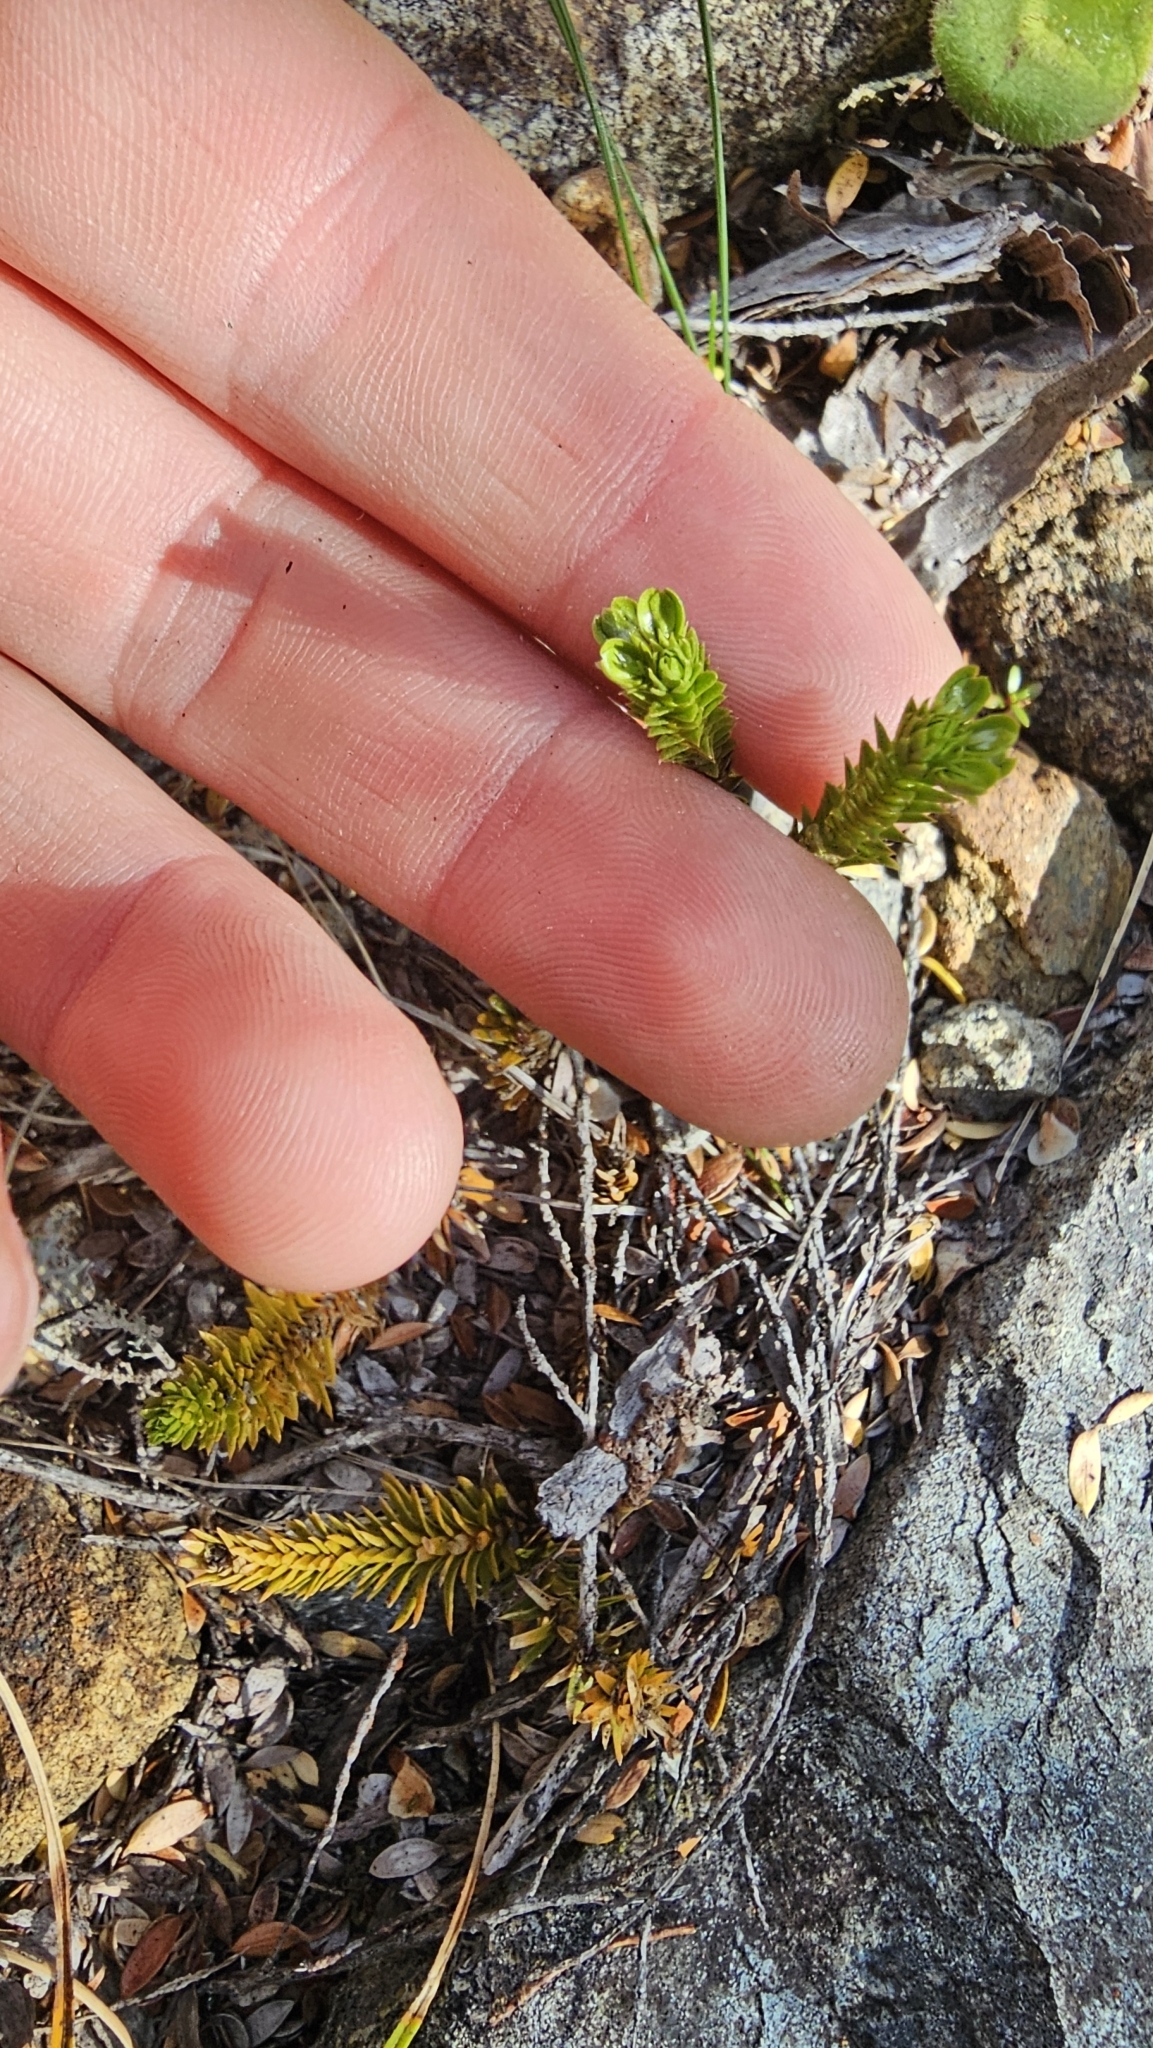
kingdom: Plantae
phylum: Tracheophyta
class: Lycopodiopsida
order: Lycopodiales
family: Lycopodiaceae
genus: Huperzia
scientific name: Huperzia australiana
